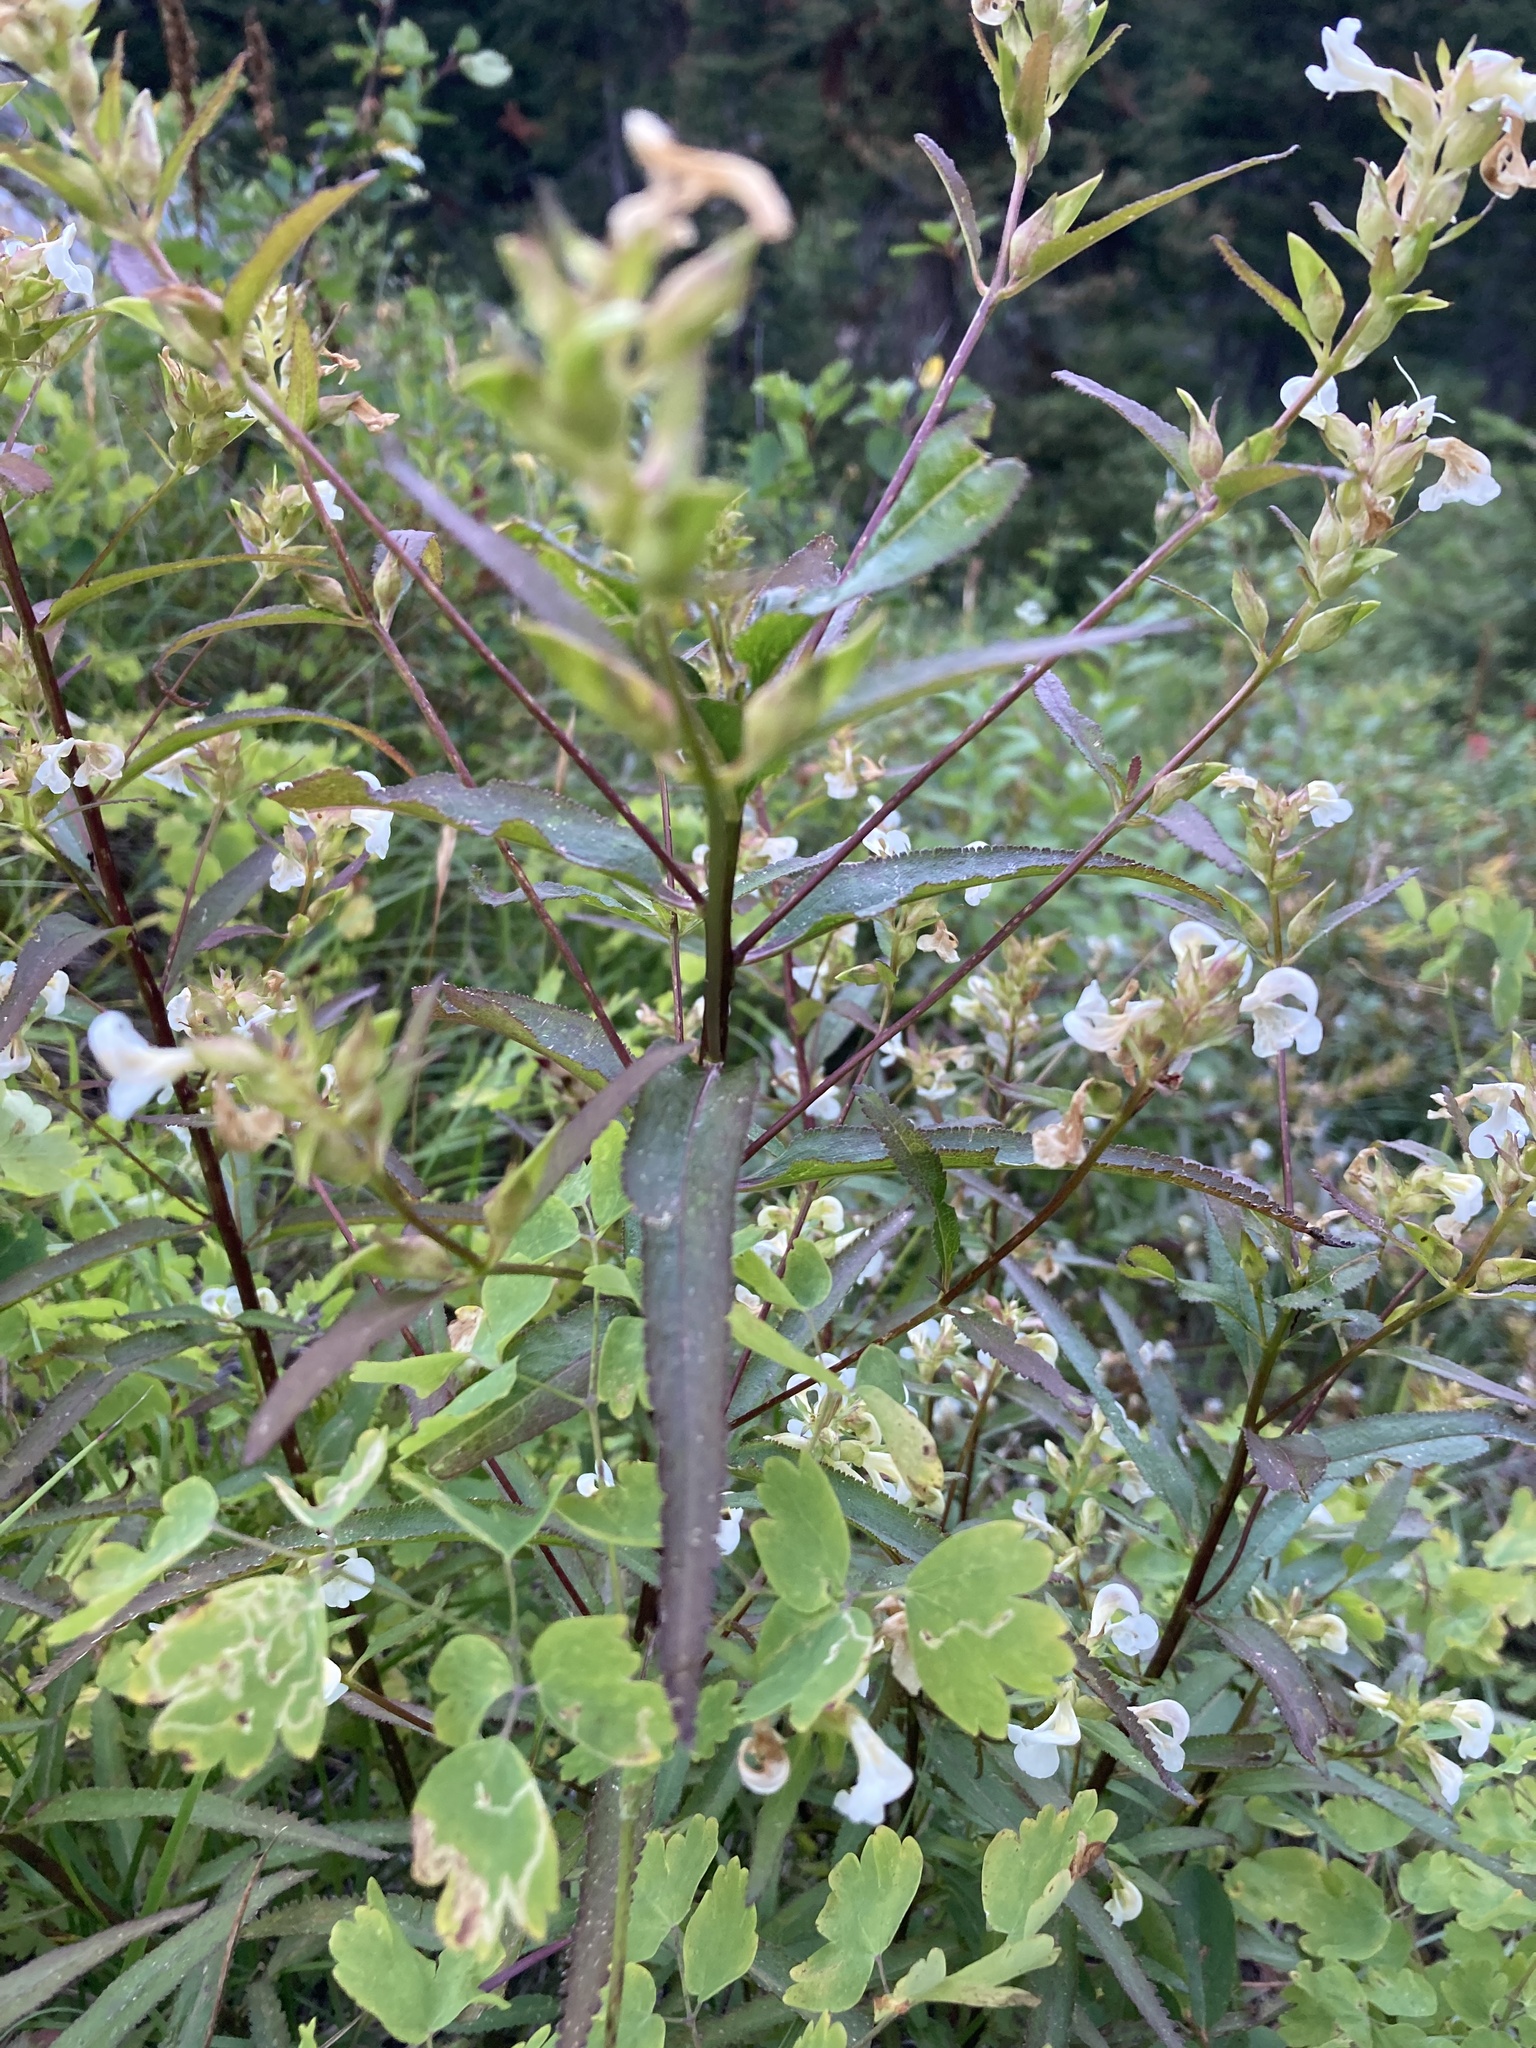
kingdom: Plantae
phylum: Tracheophyta
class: Magnoliopsida
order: Lamiales
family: Orobanchaceae
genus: Pedicularis
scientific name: Pedicularis racemosa
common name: Leafy lousewort
